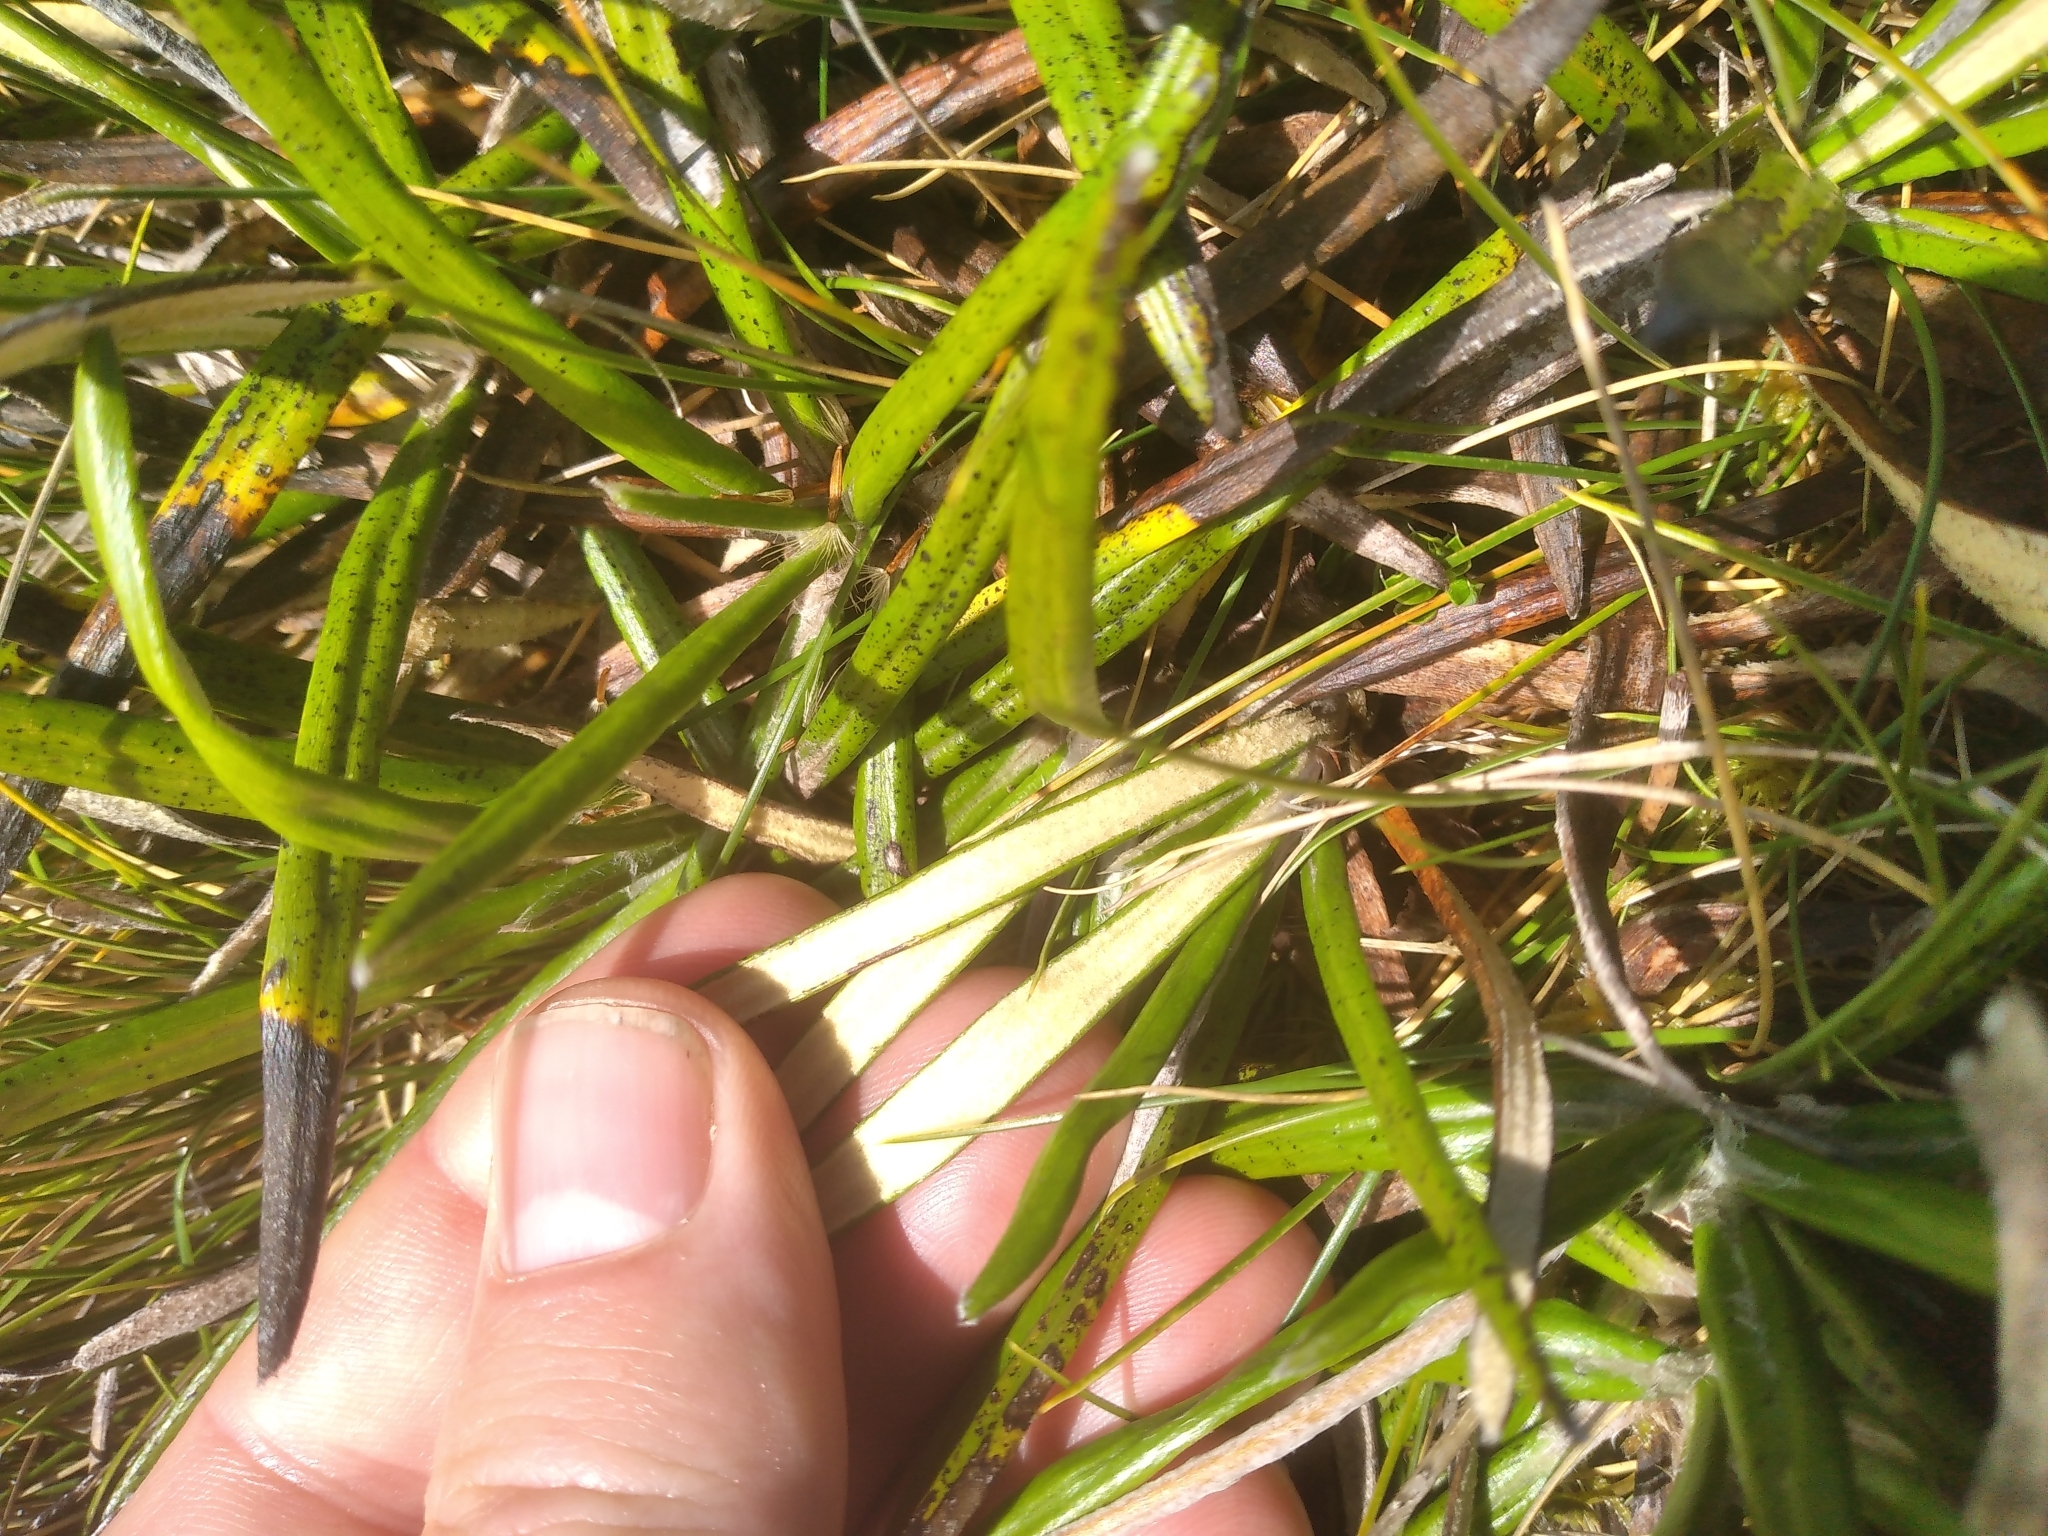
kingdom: Plantae
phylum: Tracheophyta
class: Magnoliopsida
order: Asterales
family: Asteraceae
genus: Celmisia
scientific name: Celmisia spectabilis
